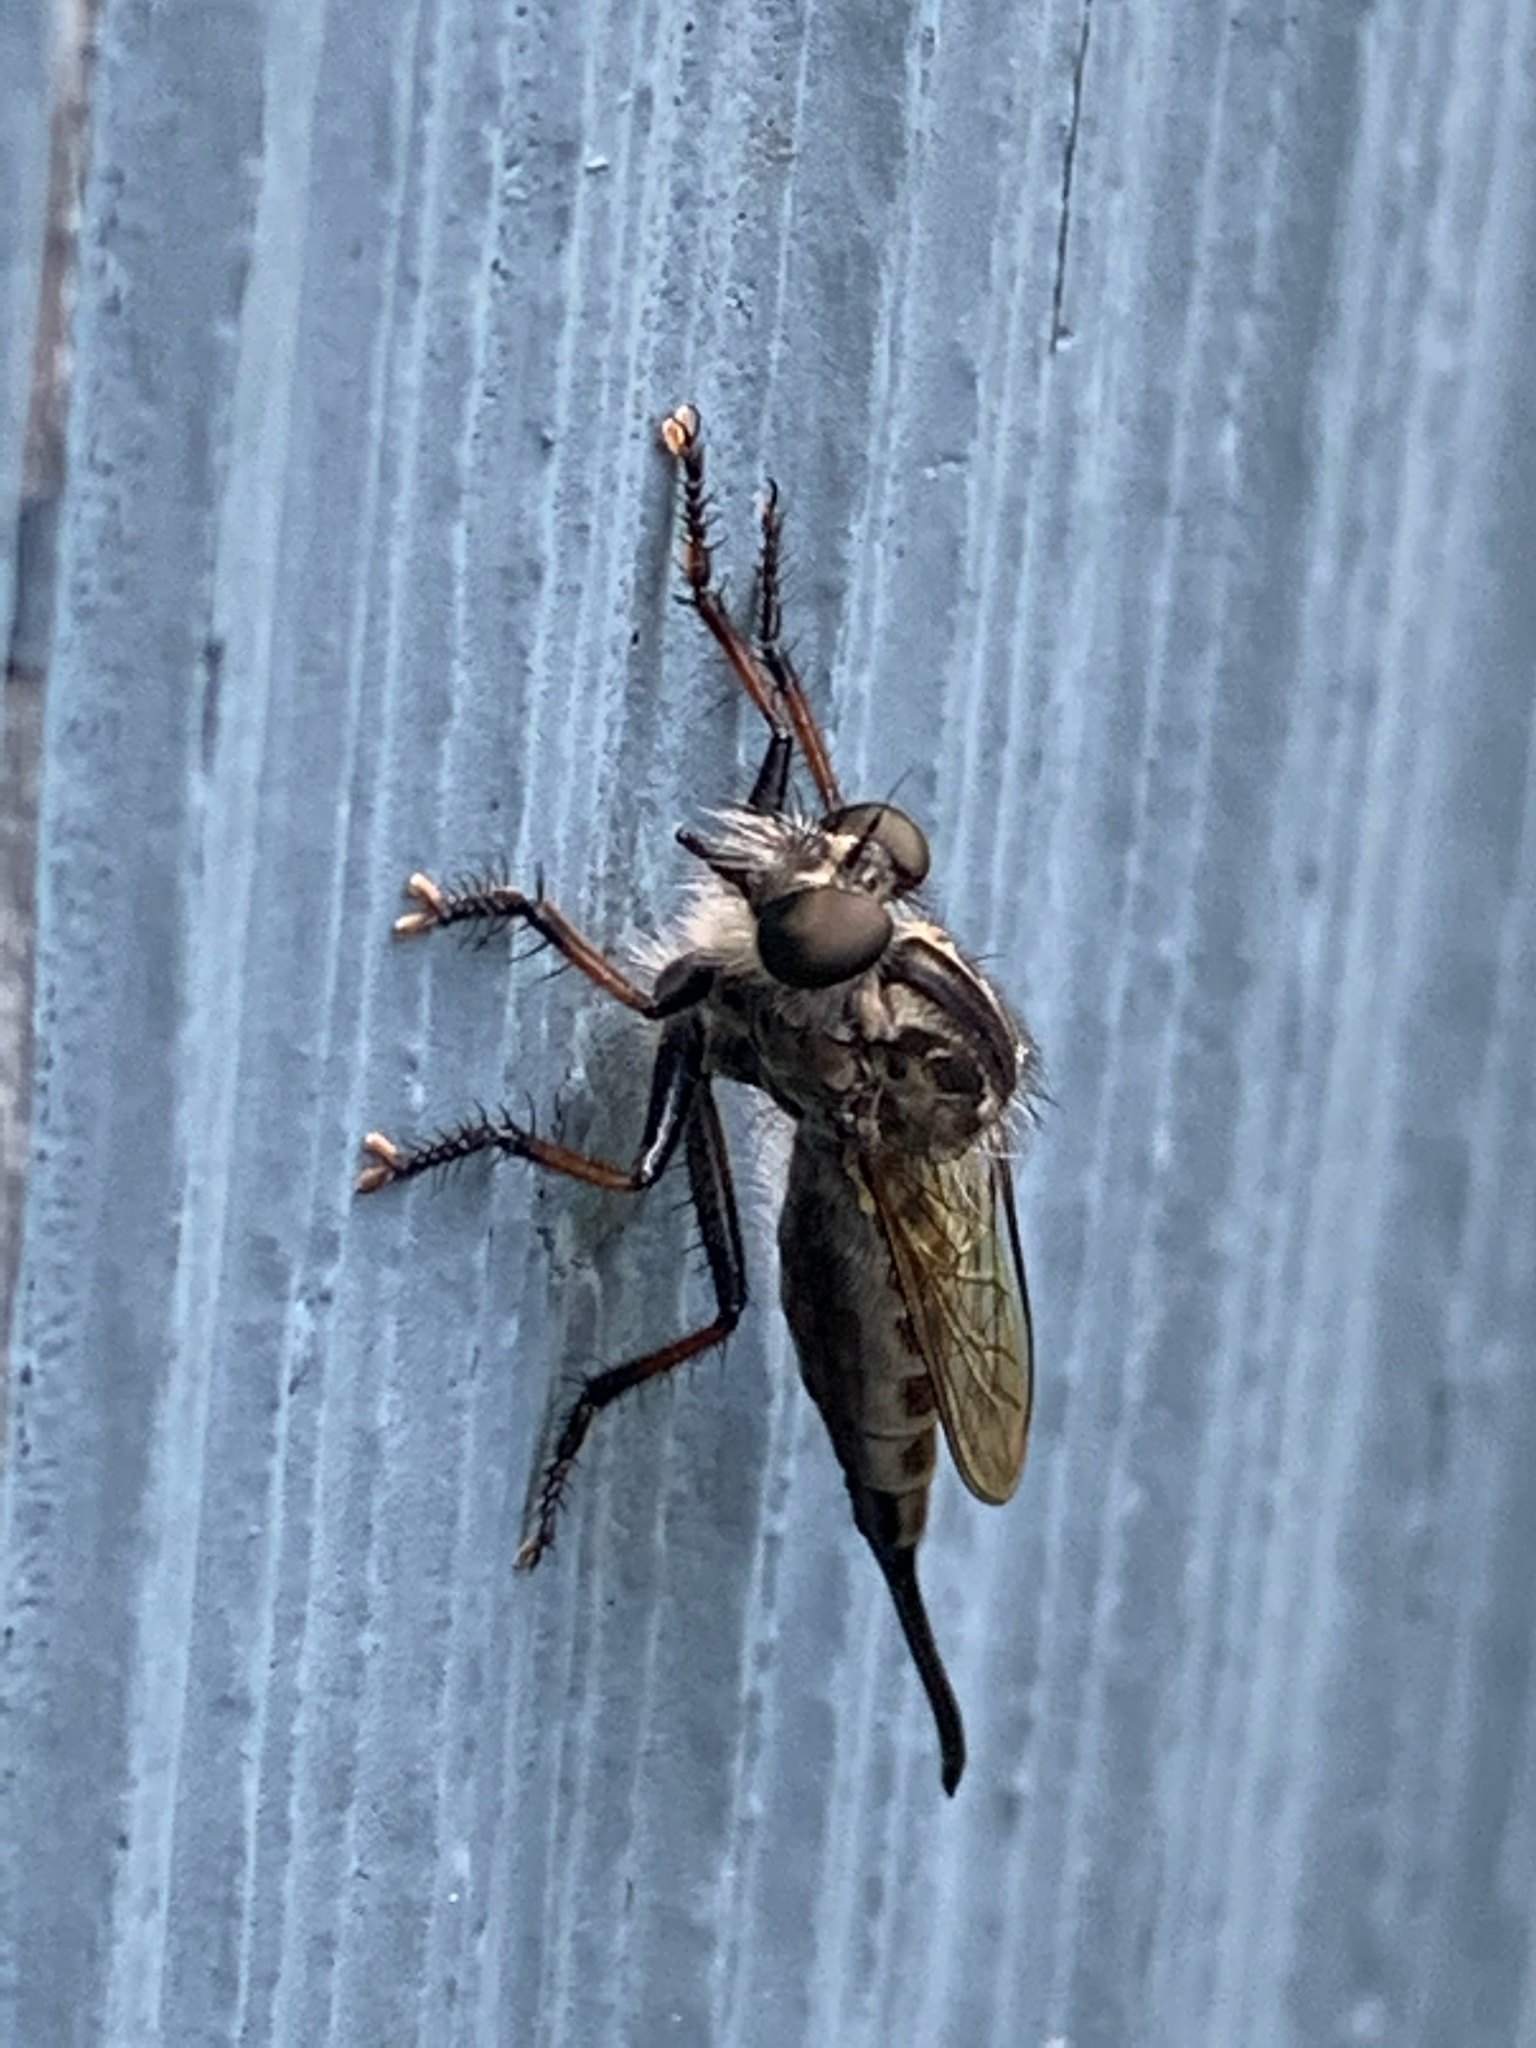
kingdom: Animalia
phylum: Arthropoda
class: Insecta
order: Diptera
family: Asilidae
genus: Efferia
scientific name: Efferia aestuans
